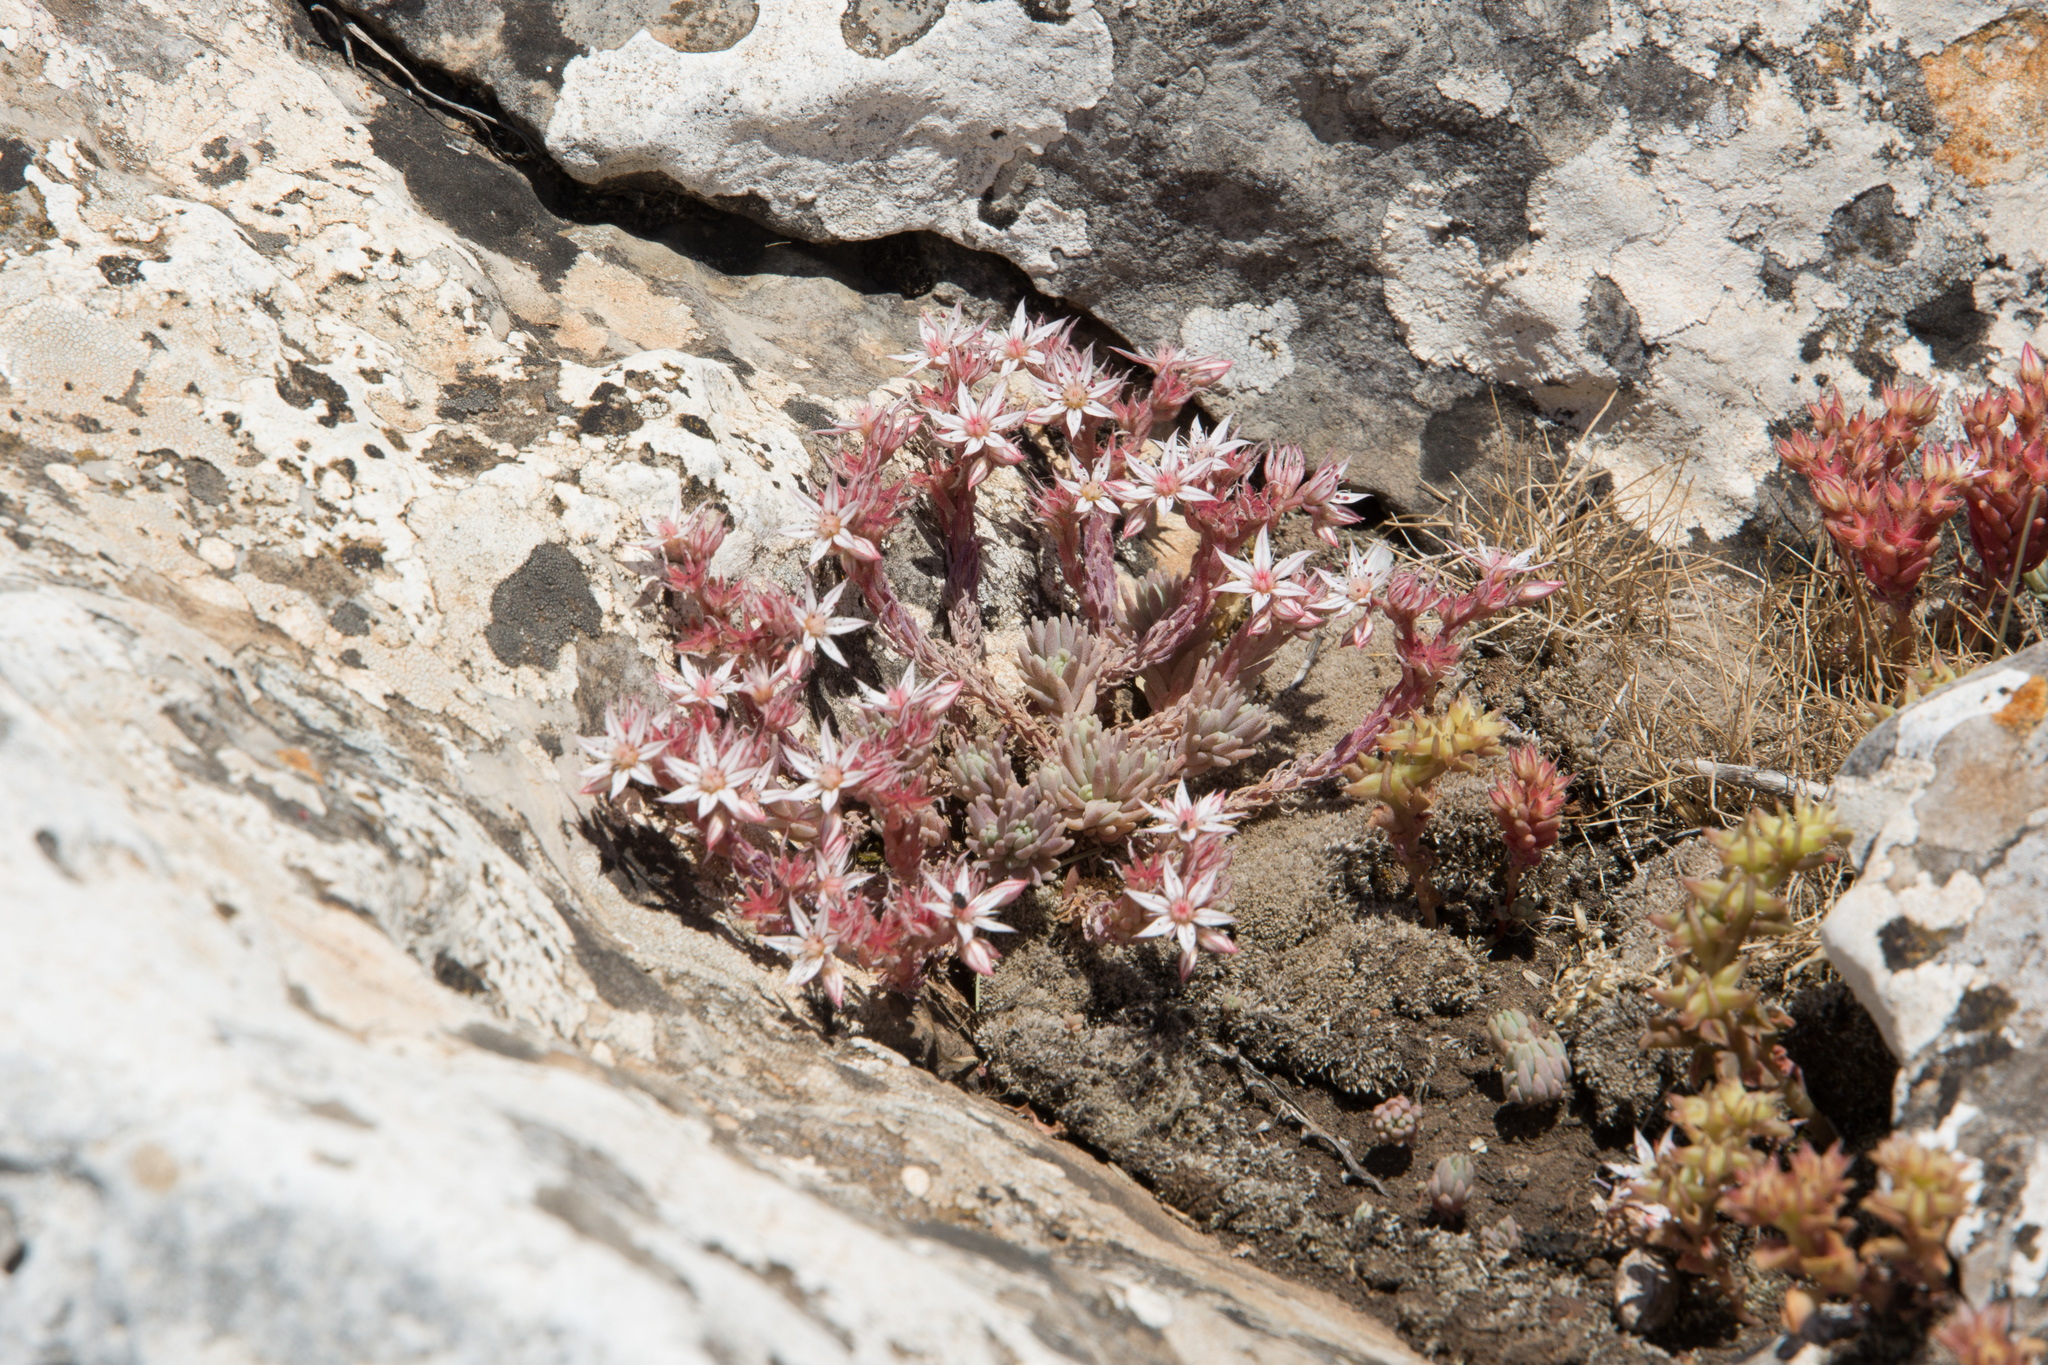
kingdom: Plantae
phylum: Tracheophyta
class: Magnoliopsida
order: Saxifragales
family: Crassulaceae
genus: Sedum
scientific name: Sedum hispanicum
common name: Spanish stonecrop
